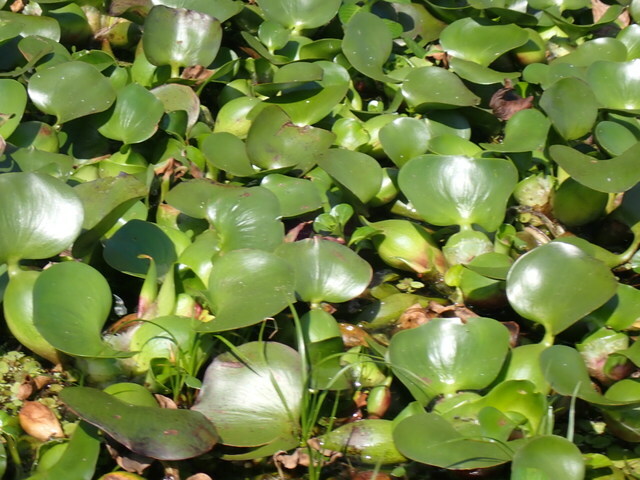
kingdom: Plantae
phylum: Tracheophyta
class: Liliopsida
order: Commelinales
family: Pontederiaceae
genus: Pontederia
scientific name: Pontederia crassipes
